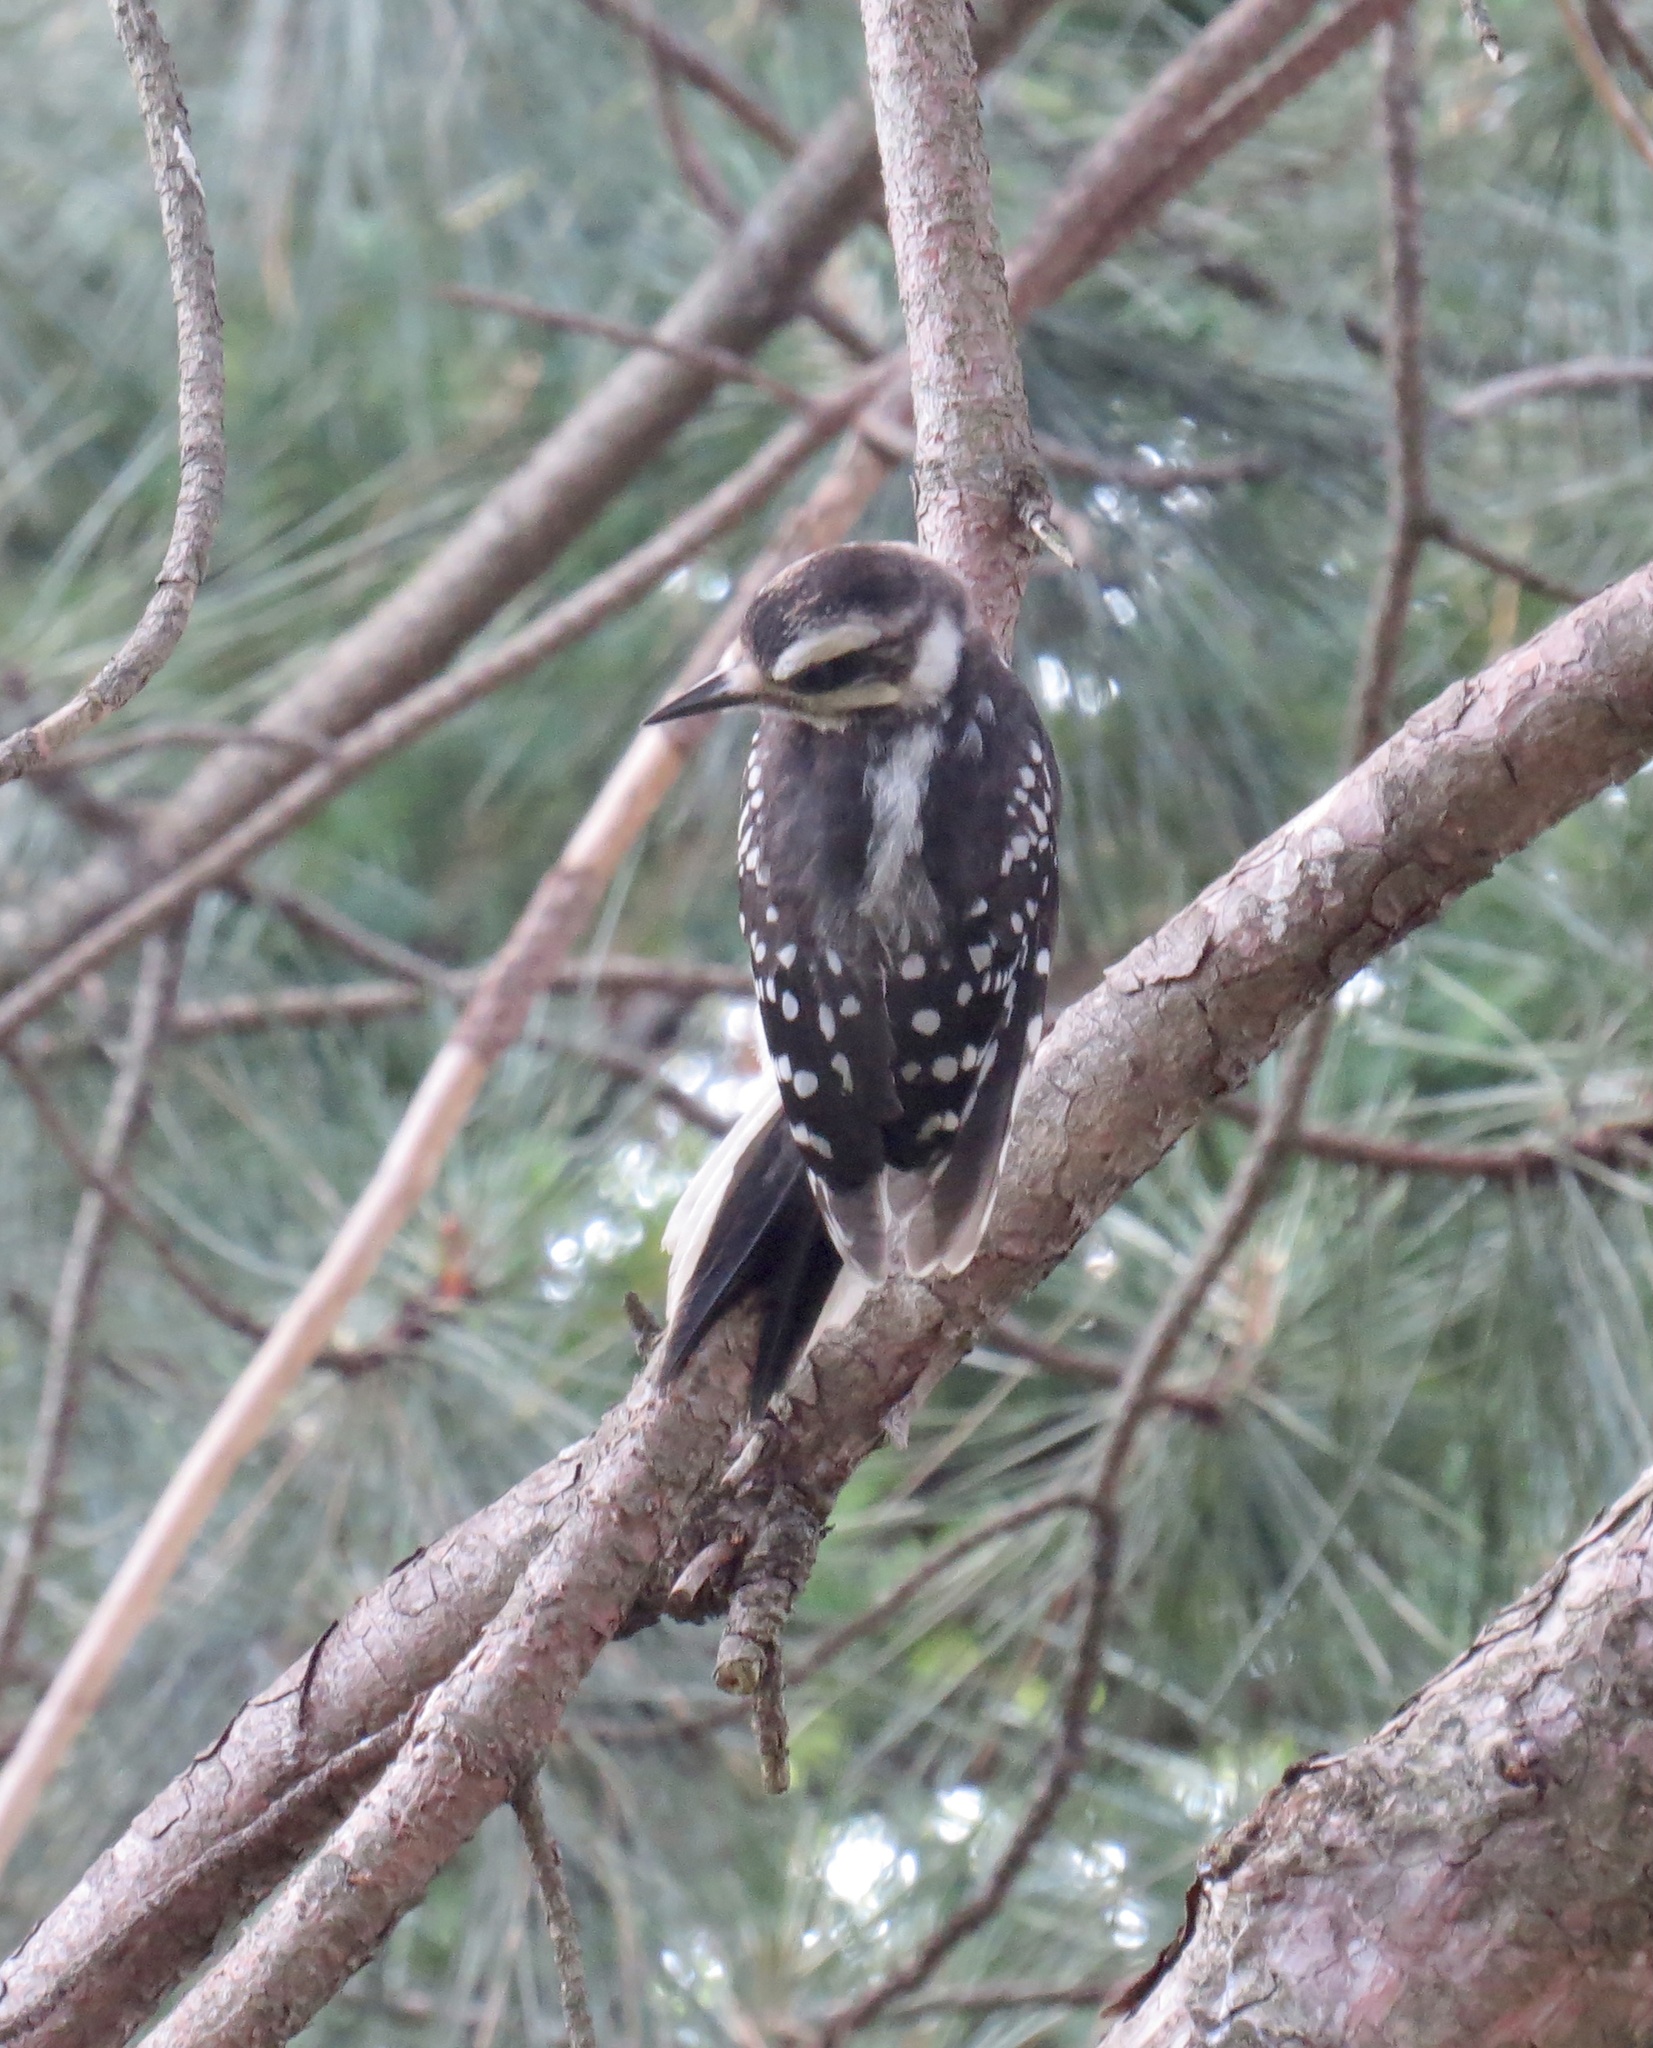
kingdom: Animalia
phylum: Chordata
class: Aves
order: Piciformes
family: Picidae
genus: Leuconotopicus
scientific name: Leuconotopicus villosus
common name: Hairy woodpecker
